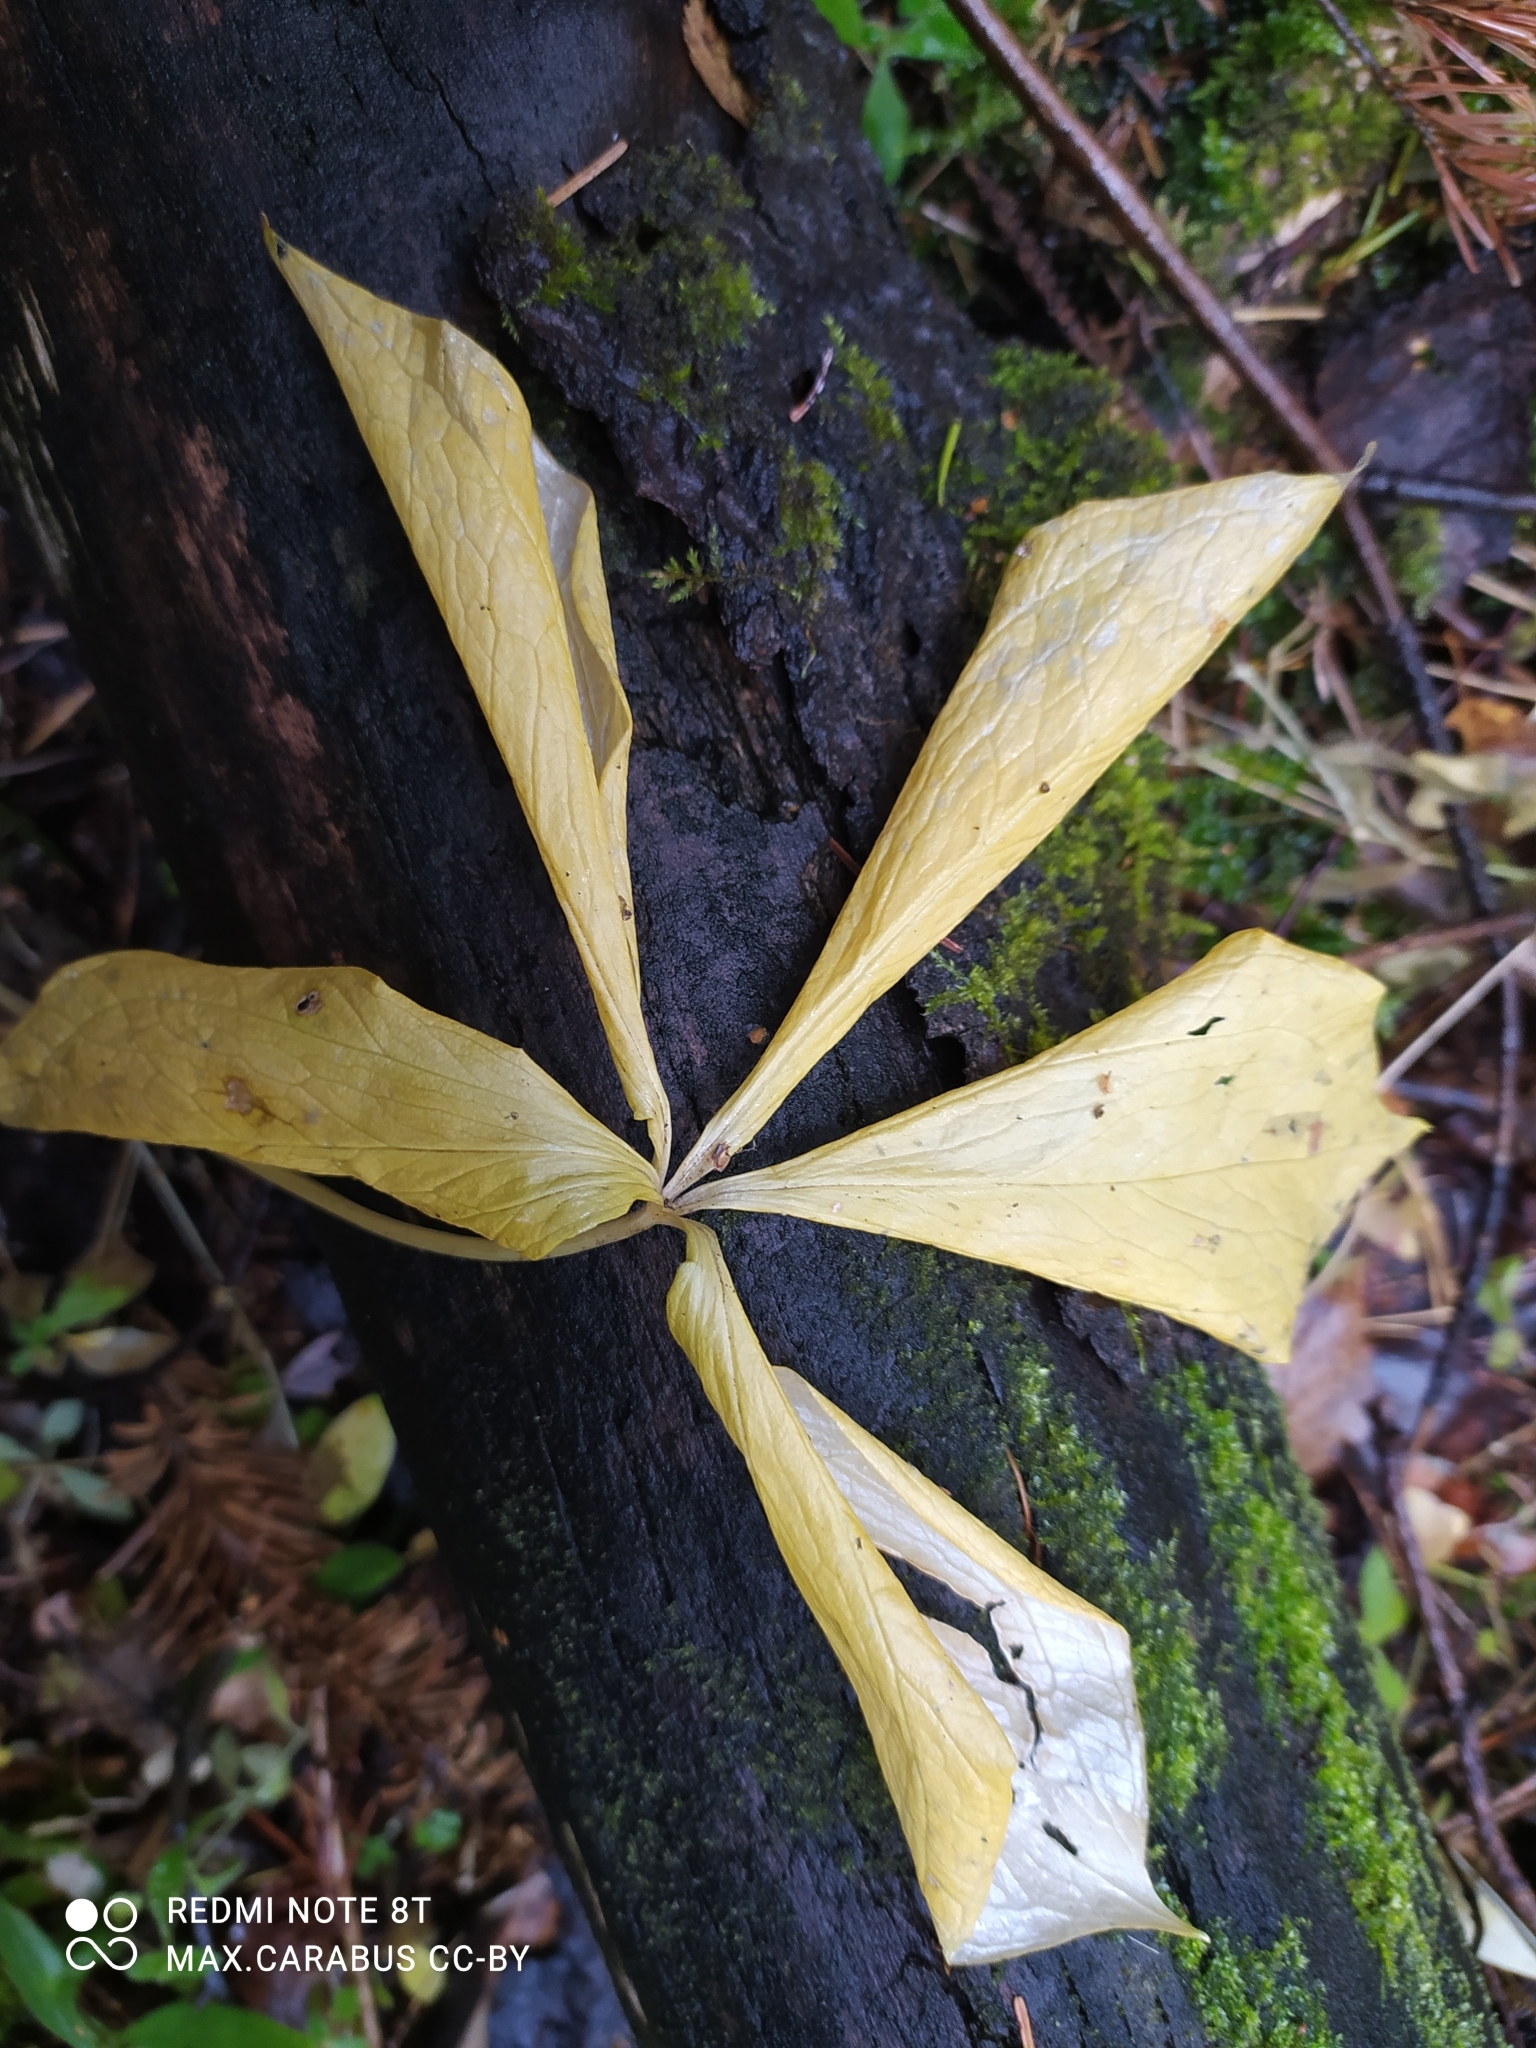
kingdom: Plantae
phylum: Tracheophyta
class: Liliopsida
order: Liliales
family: Melanthiaceae
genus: Paris
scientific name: Paris quadrifolia
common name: Herb-paris
